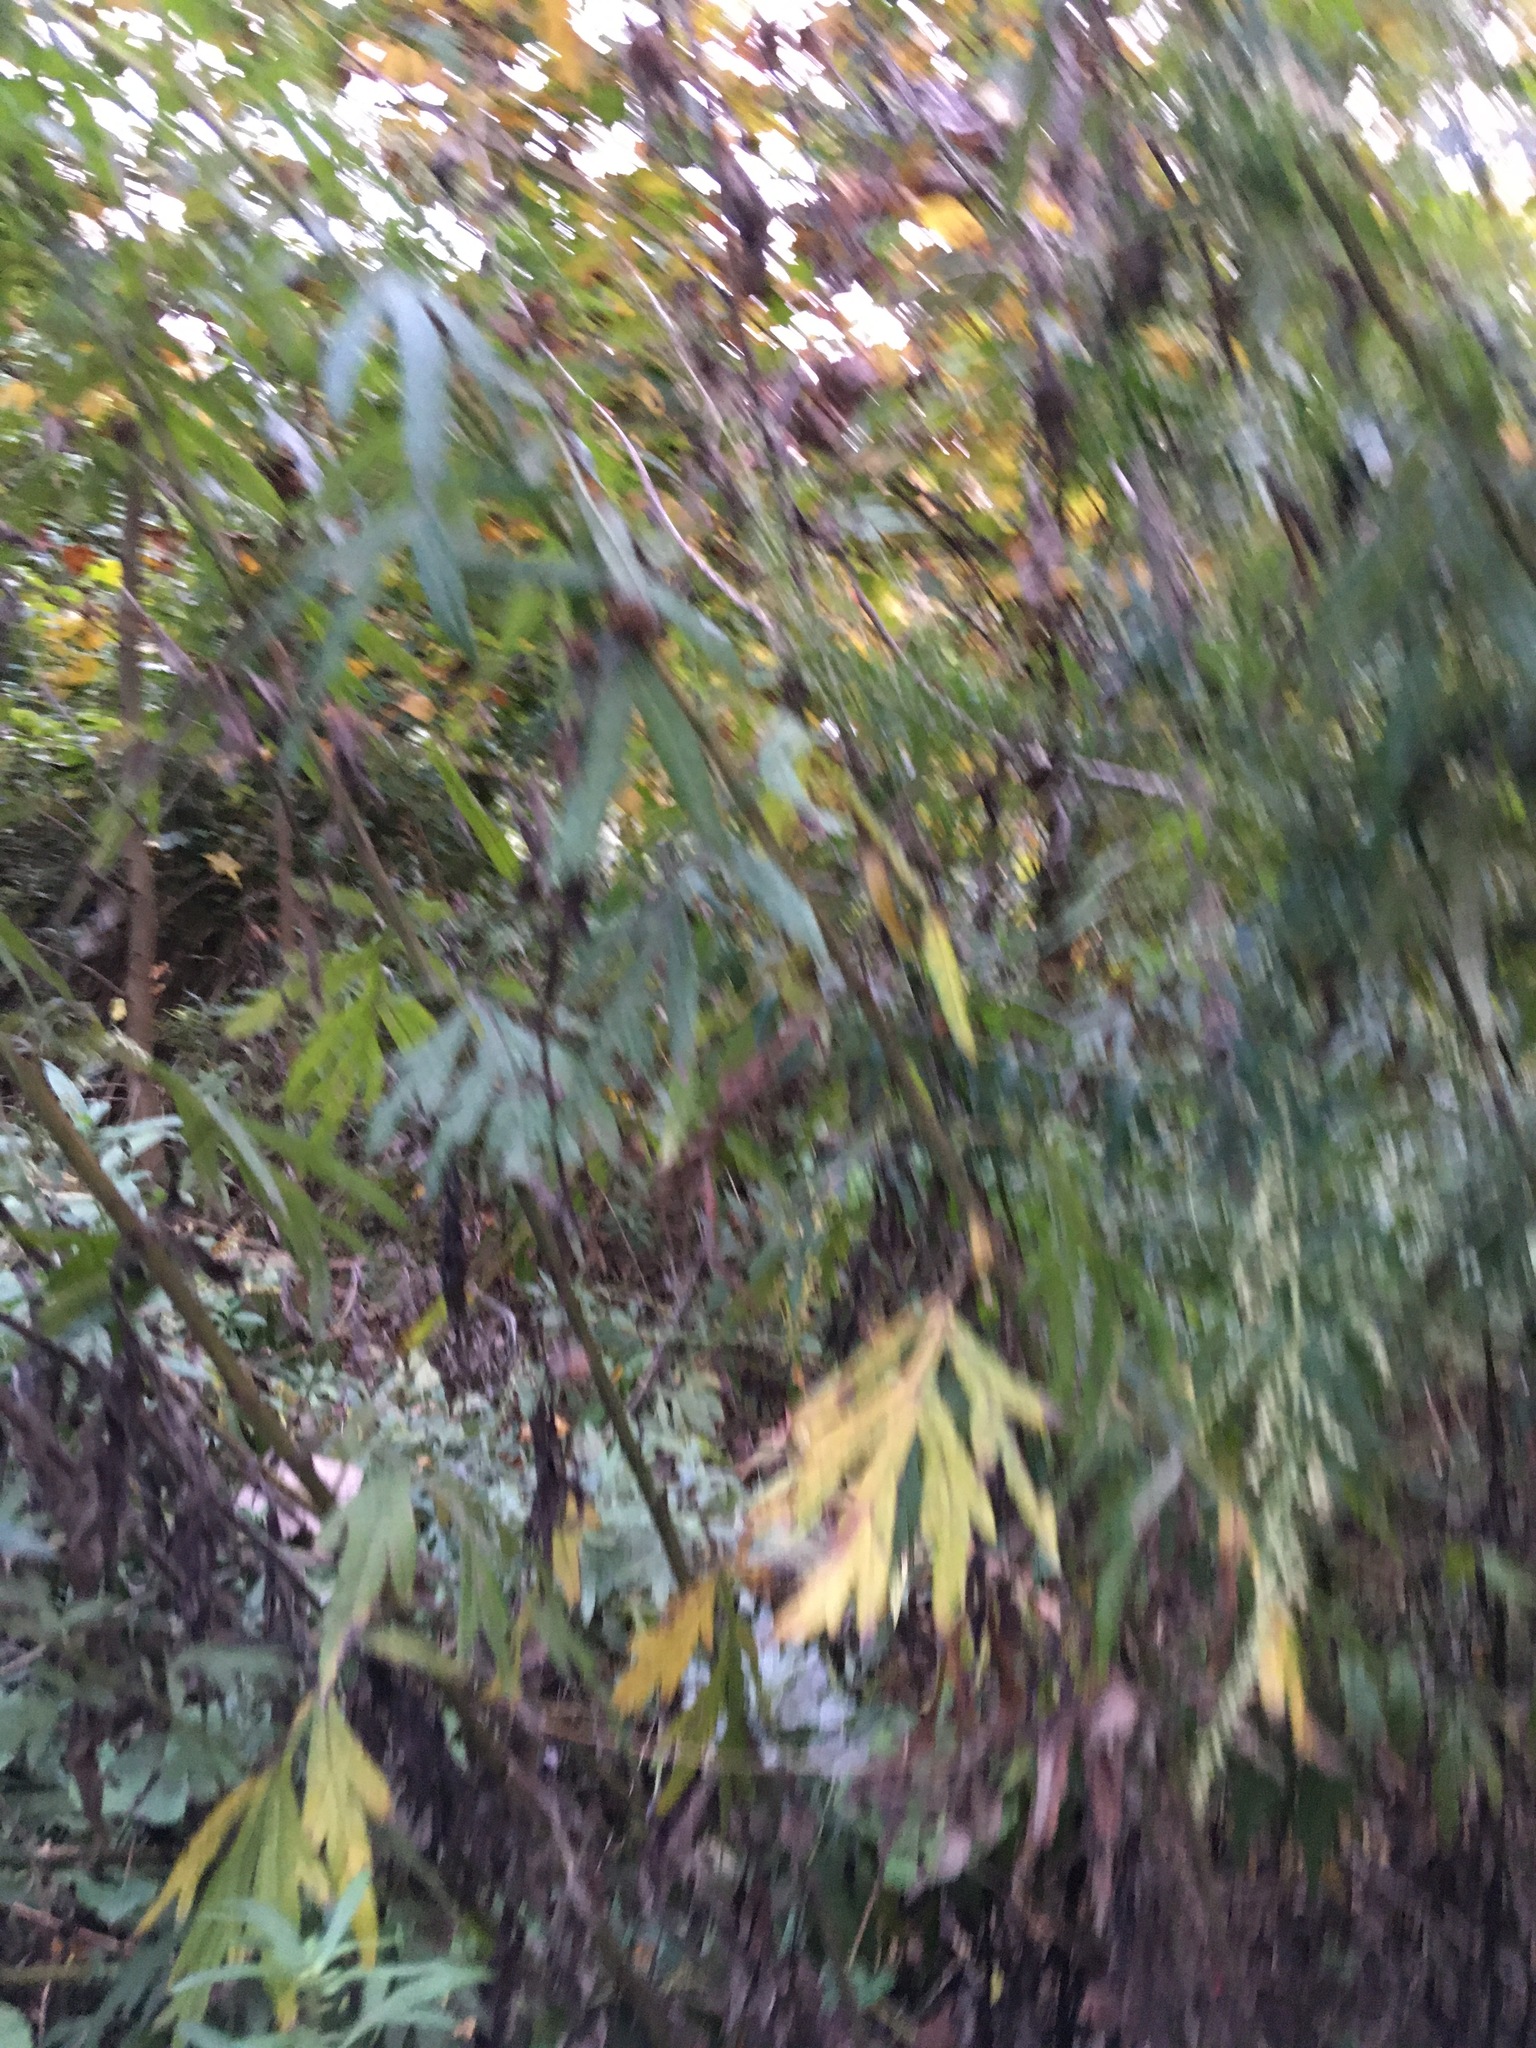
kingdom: Plantae
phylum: Tracheophyta
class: Magnoliopsida
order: Asterales
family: Asteraceae
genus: Artemisia
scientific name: Artemisia vulgaris
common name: Mugwort
